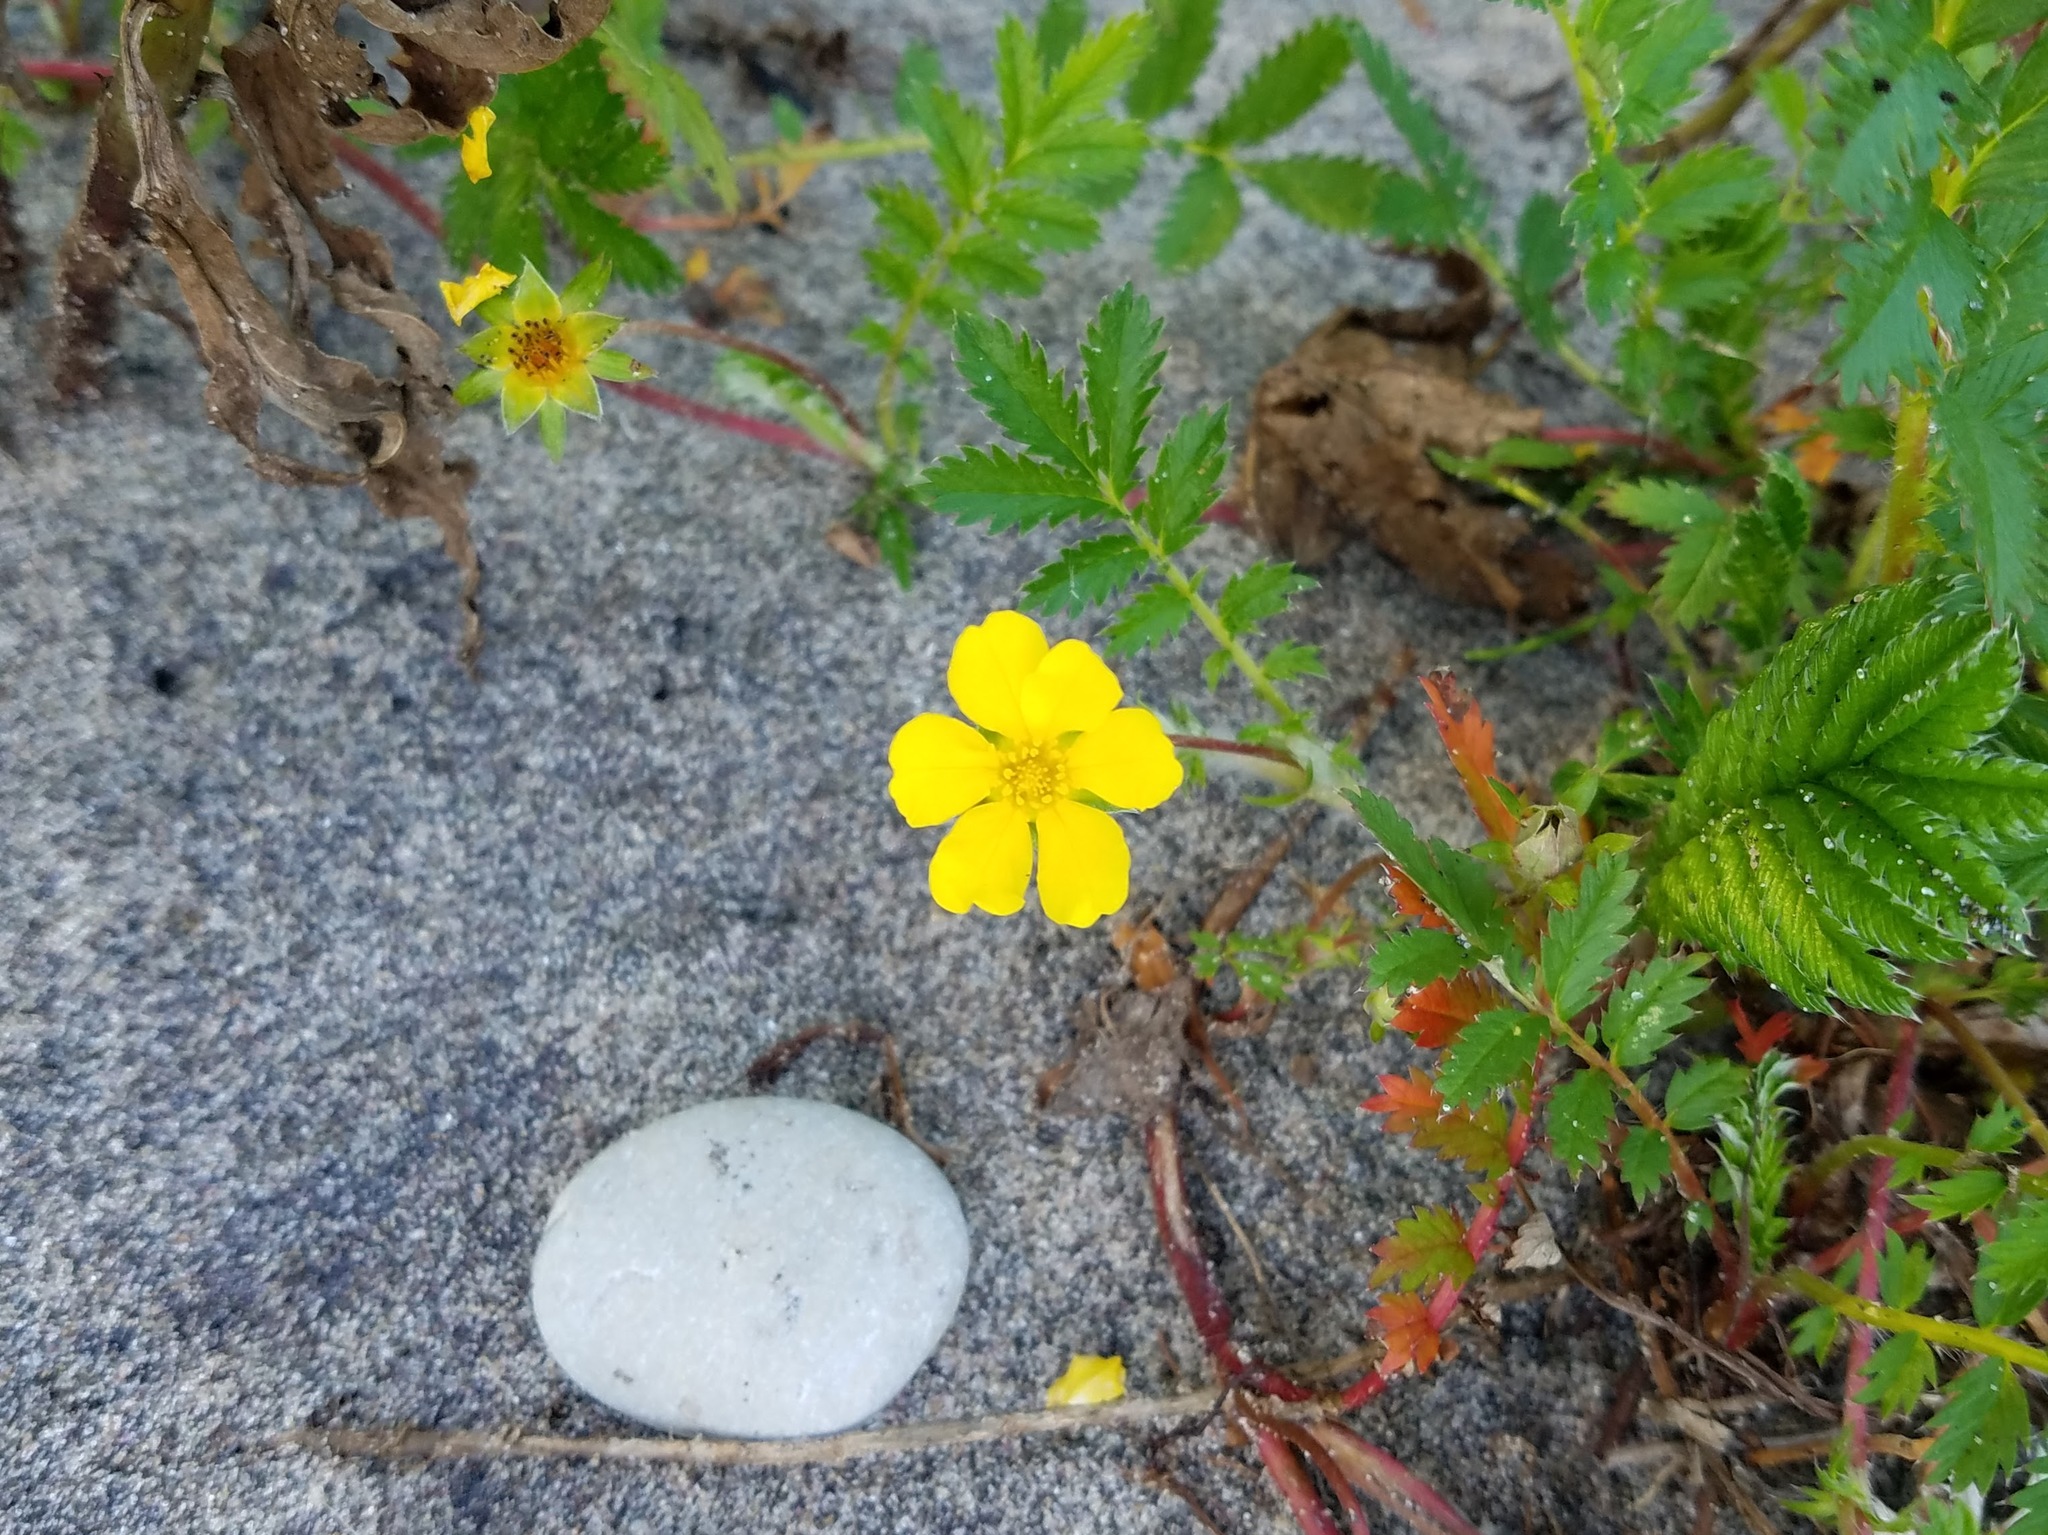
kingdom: Plantae
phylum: Tracheophyta
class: Magnoliopsida
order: Rosales
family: Rosaceae
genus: Argentina
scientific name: Argentina anserina
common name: Common silverweed
